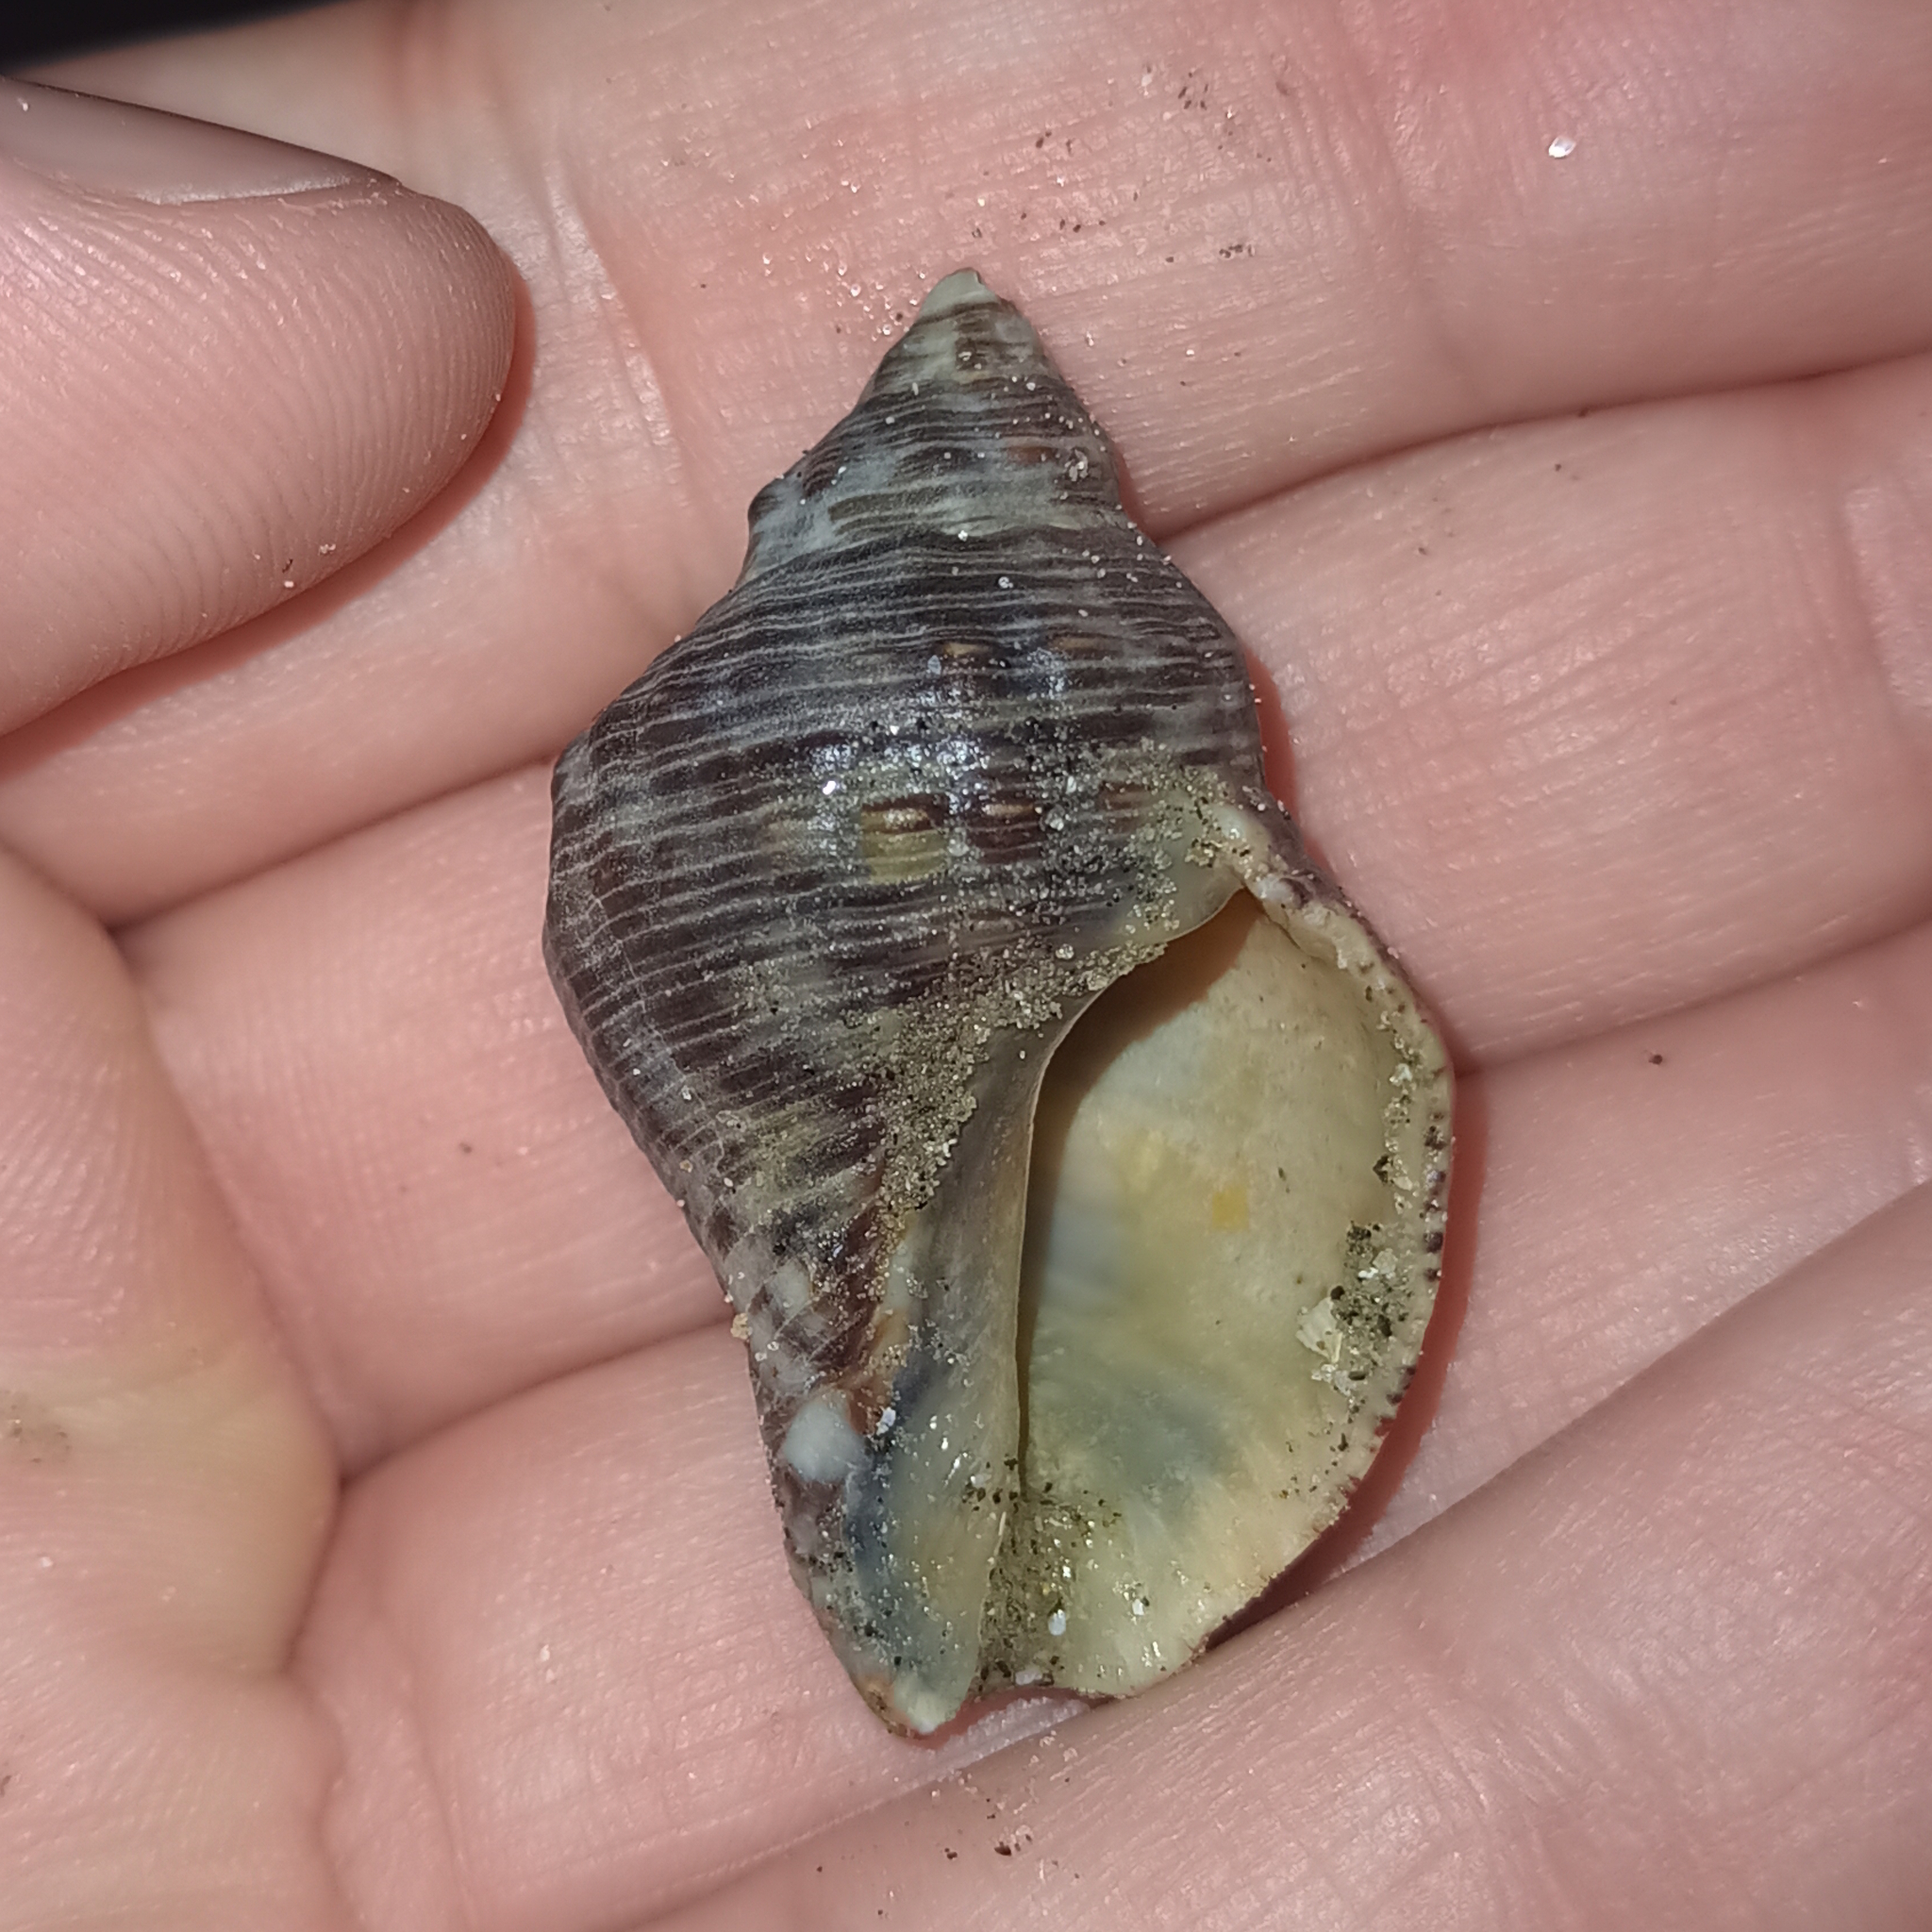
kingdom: Animalia
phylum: Mollusca
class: Gastropoda
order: Neogastropoda
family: Muricidae
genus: Stramonita
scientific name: Stramonita brasiliensis
